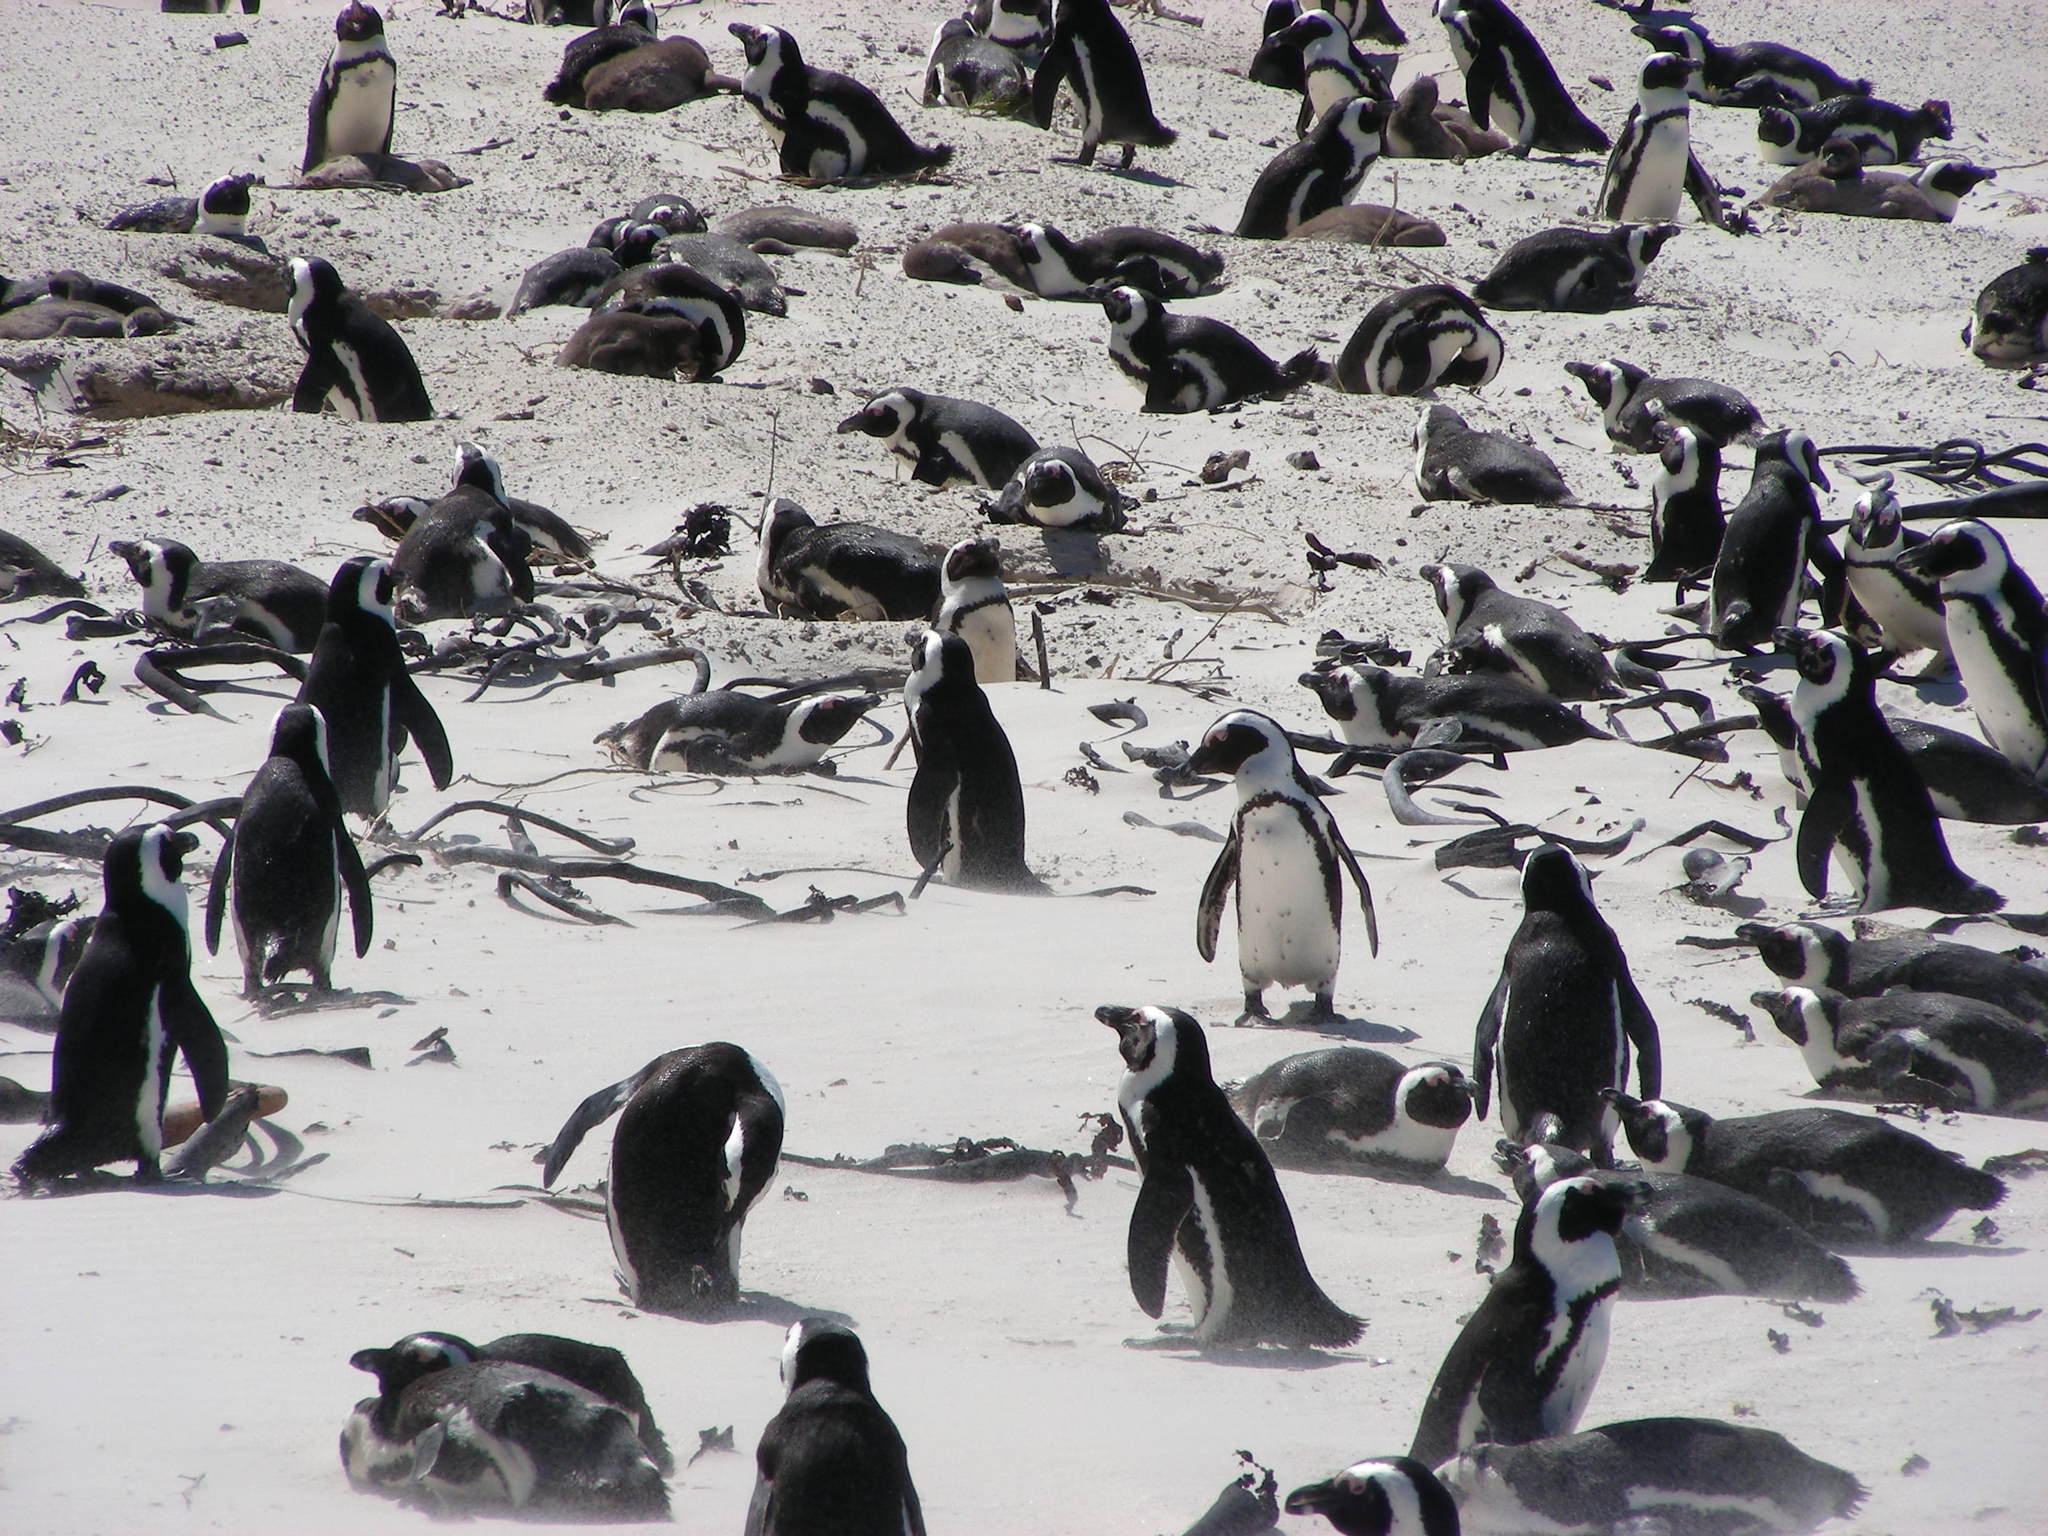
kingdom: Animalia
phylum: Chordata
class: Aves
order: Sphenisciformes
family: Spheniscidae
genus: Spheniscus
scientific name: Spheniscus demersus
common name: African penguin
